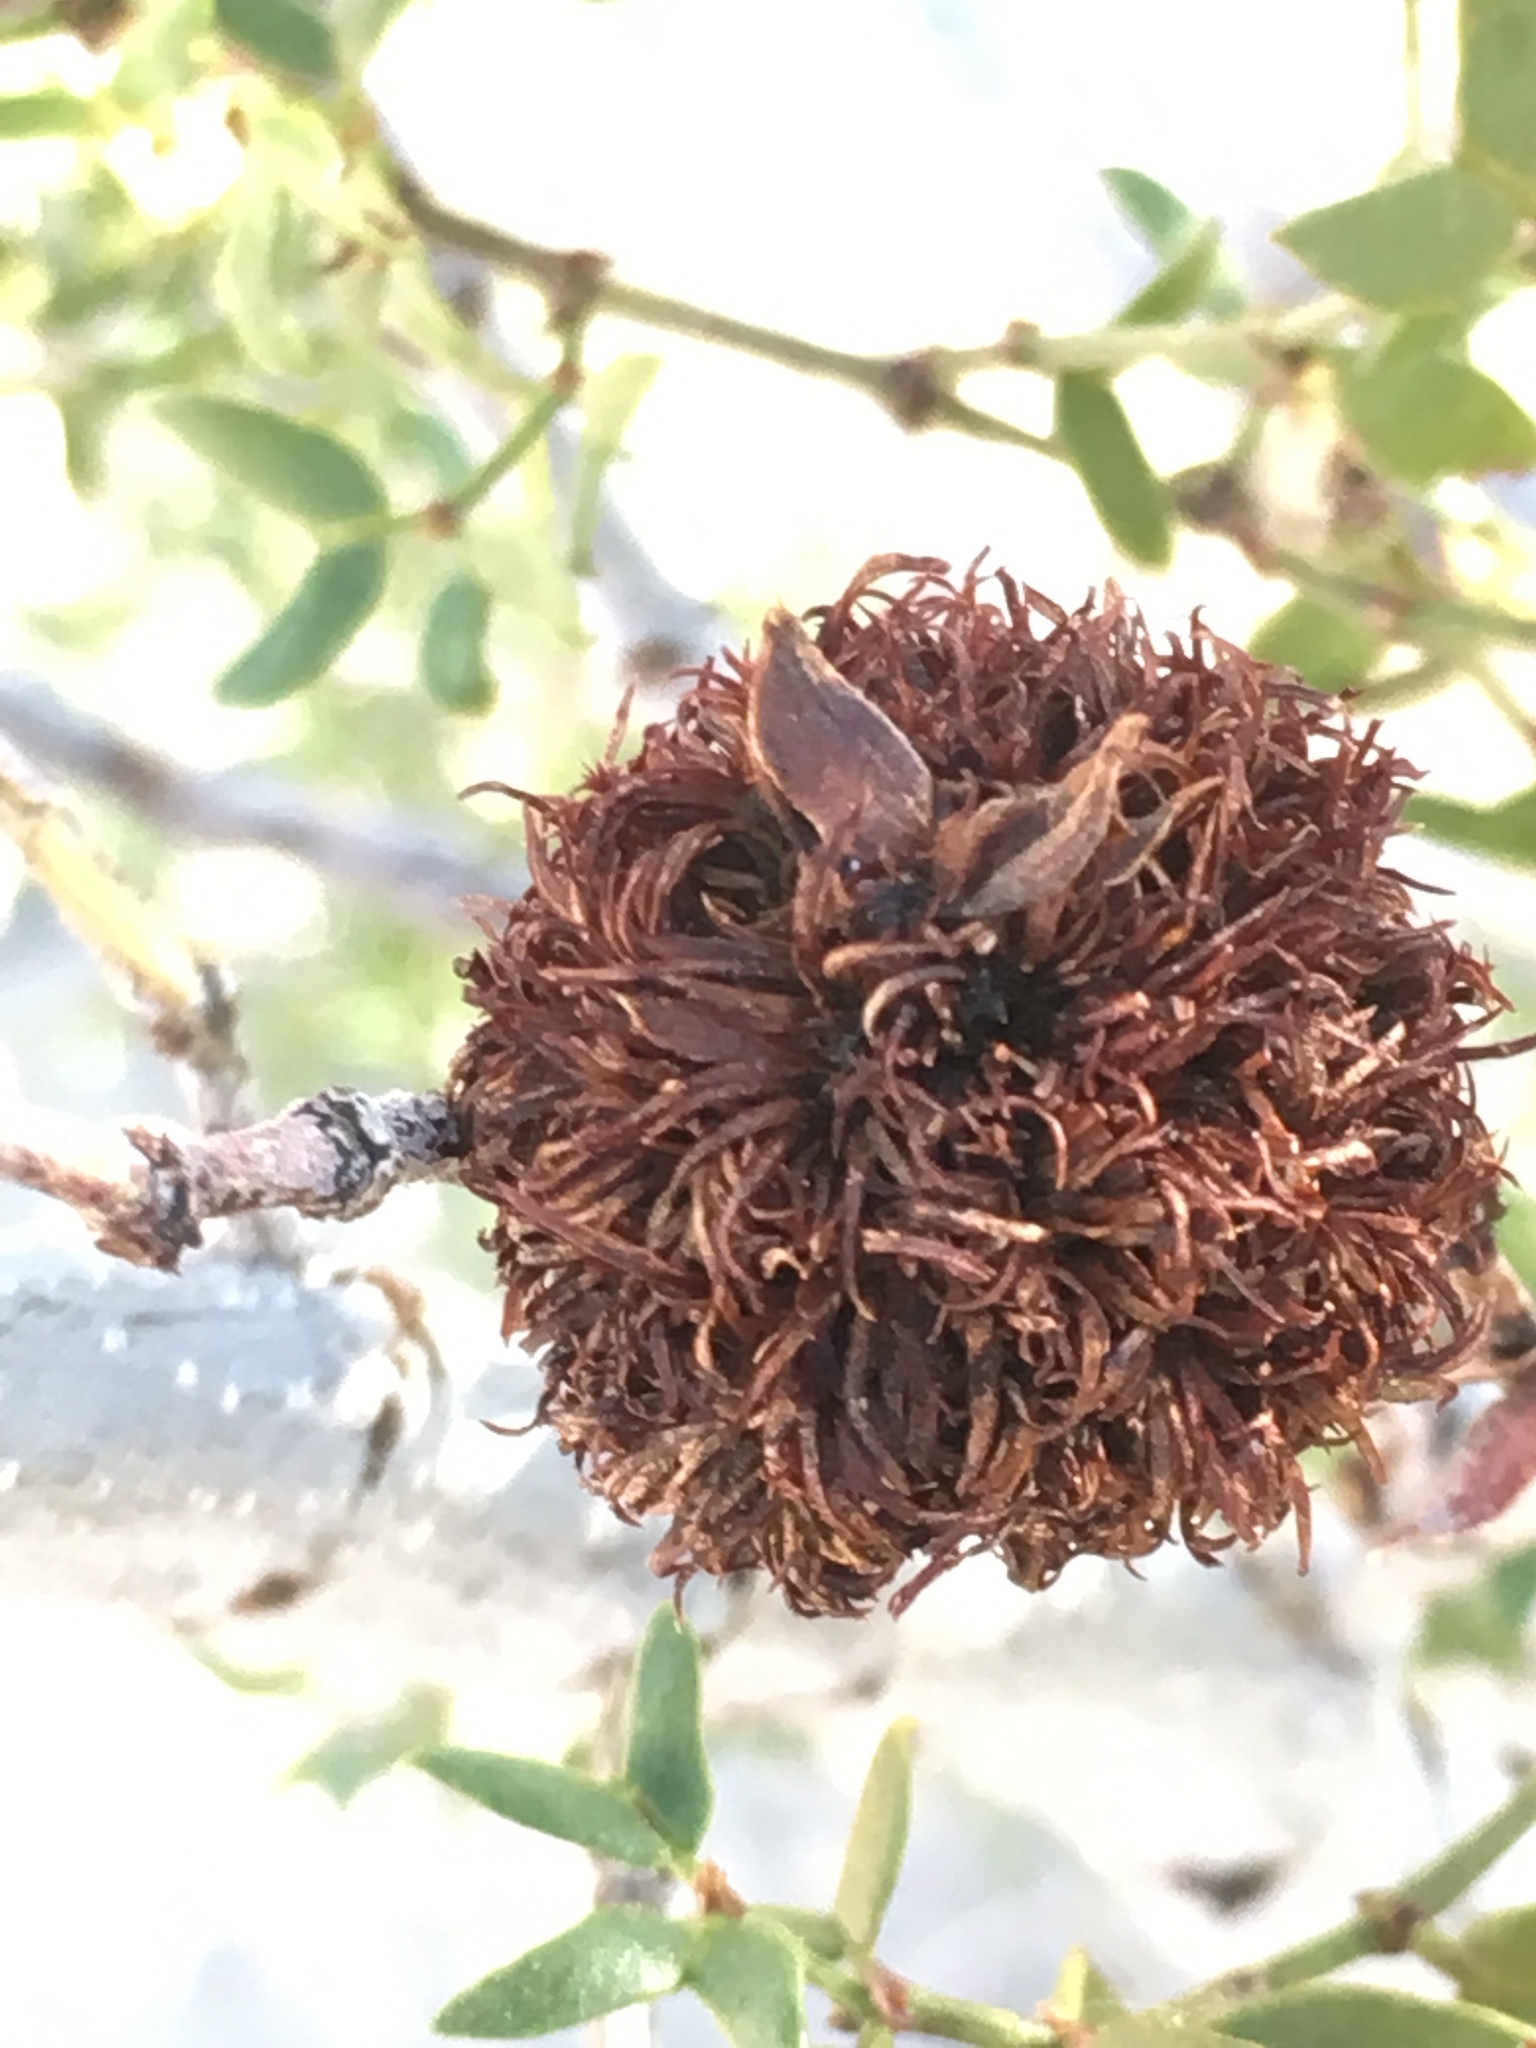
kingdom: Plantae
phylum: Tracheophyta
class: Magnoliopsida
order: Zygophyllales
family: Zygophyllaceae
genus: Larrea
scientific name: Larrea tridentata
